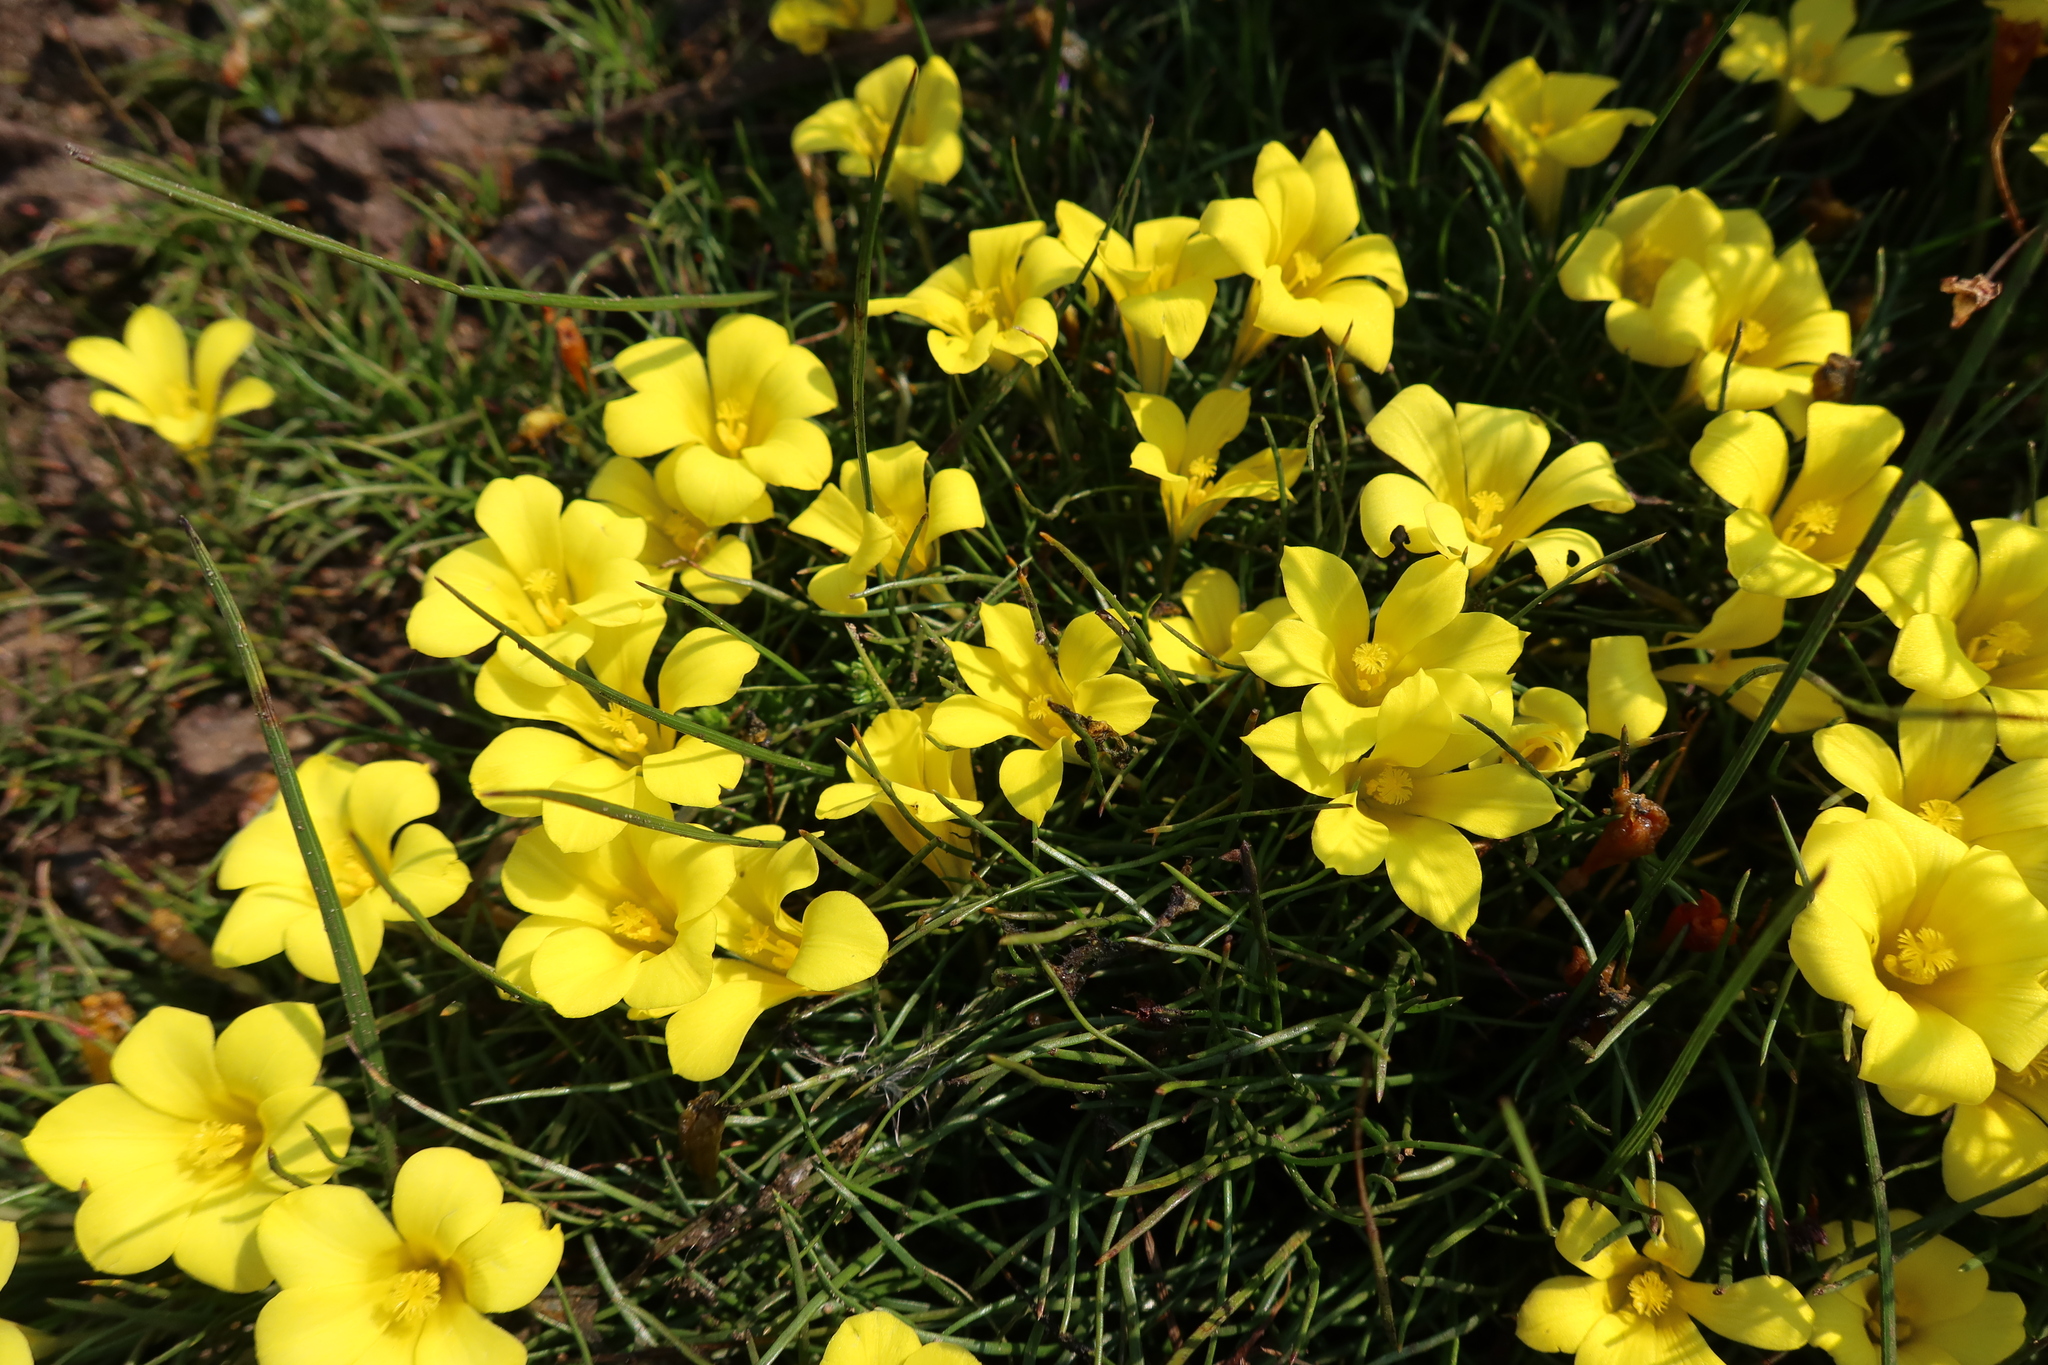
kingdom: Plantae
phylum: Tracheophyta
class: Liliopsida
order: Asparagales
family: Iridaceae
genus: Moraea
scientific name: Moraea fugacissima
